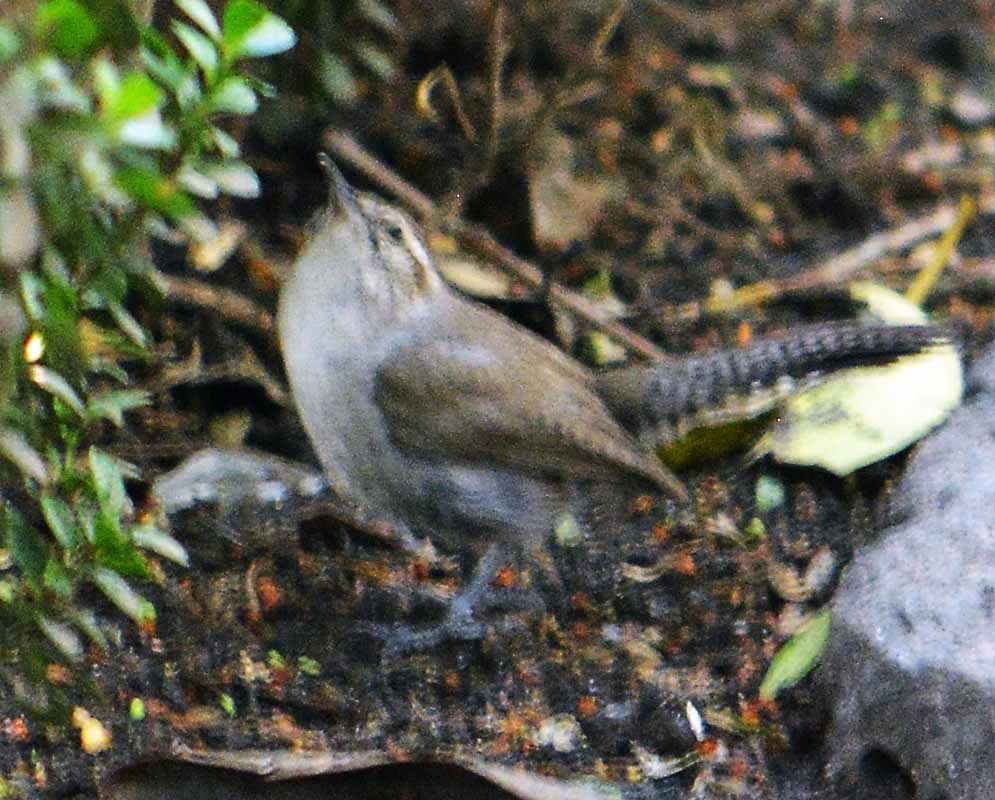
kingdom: Animalia
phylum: Chordata
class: Aves
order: Passeriformes
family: Troglodytidae
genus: Thryomanes
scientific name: Thryomanes bewickii
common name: Bewick's wren
